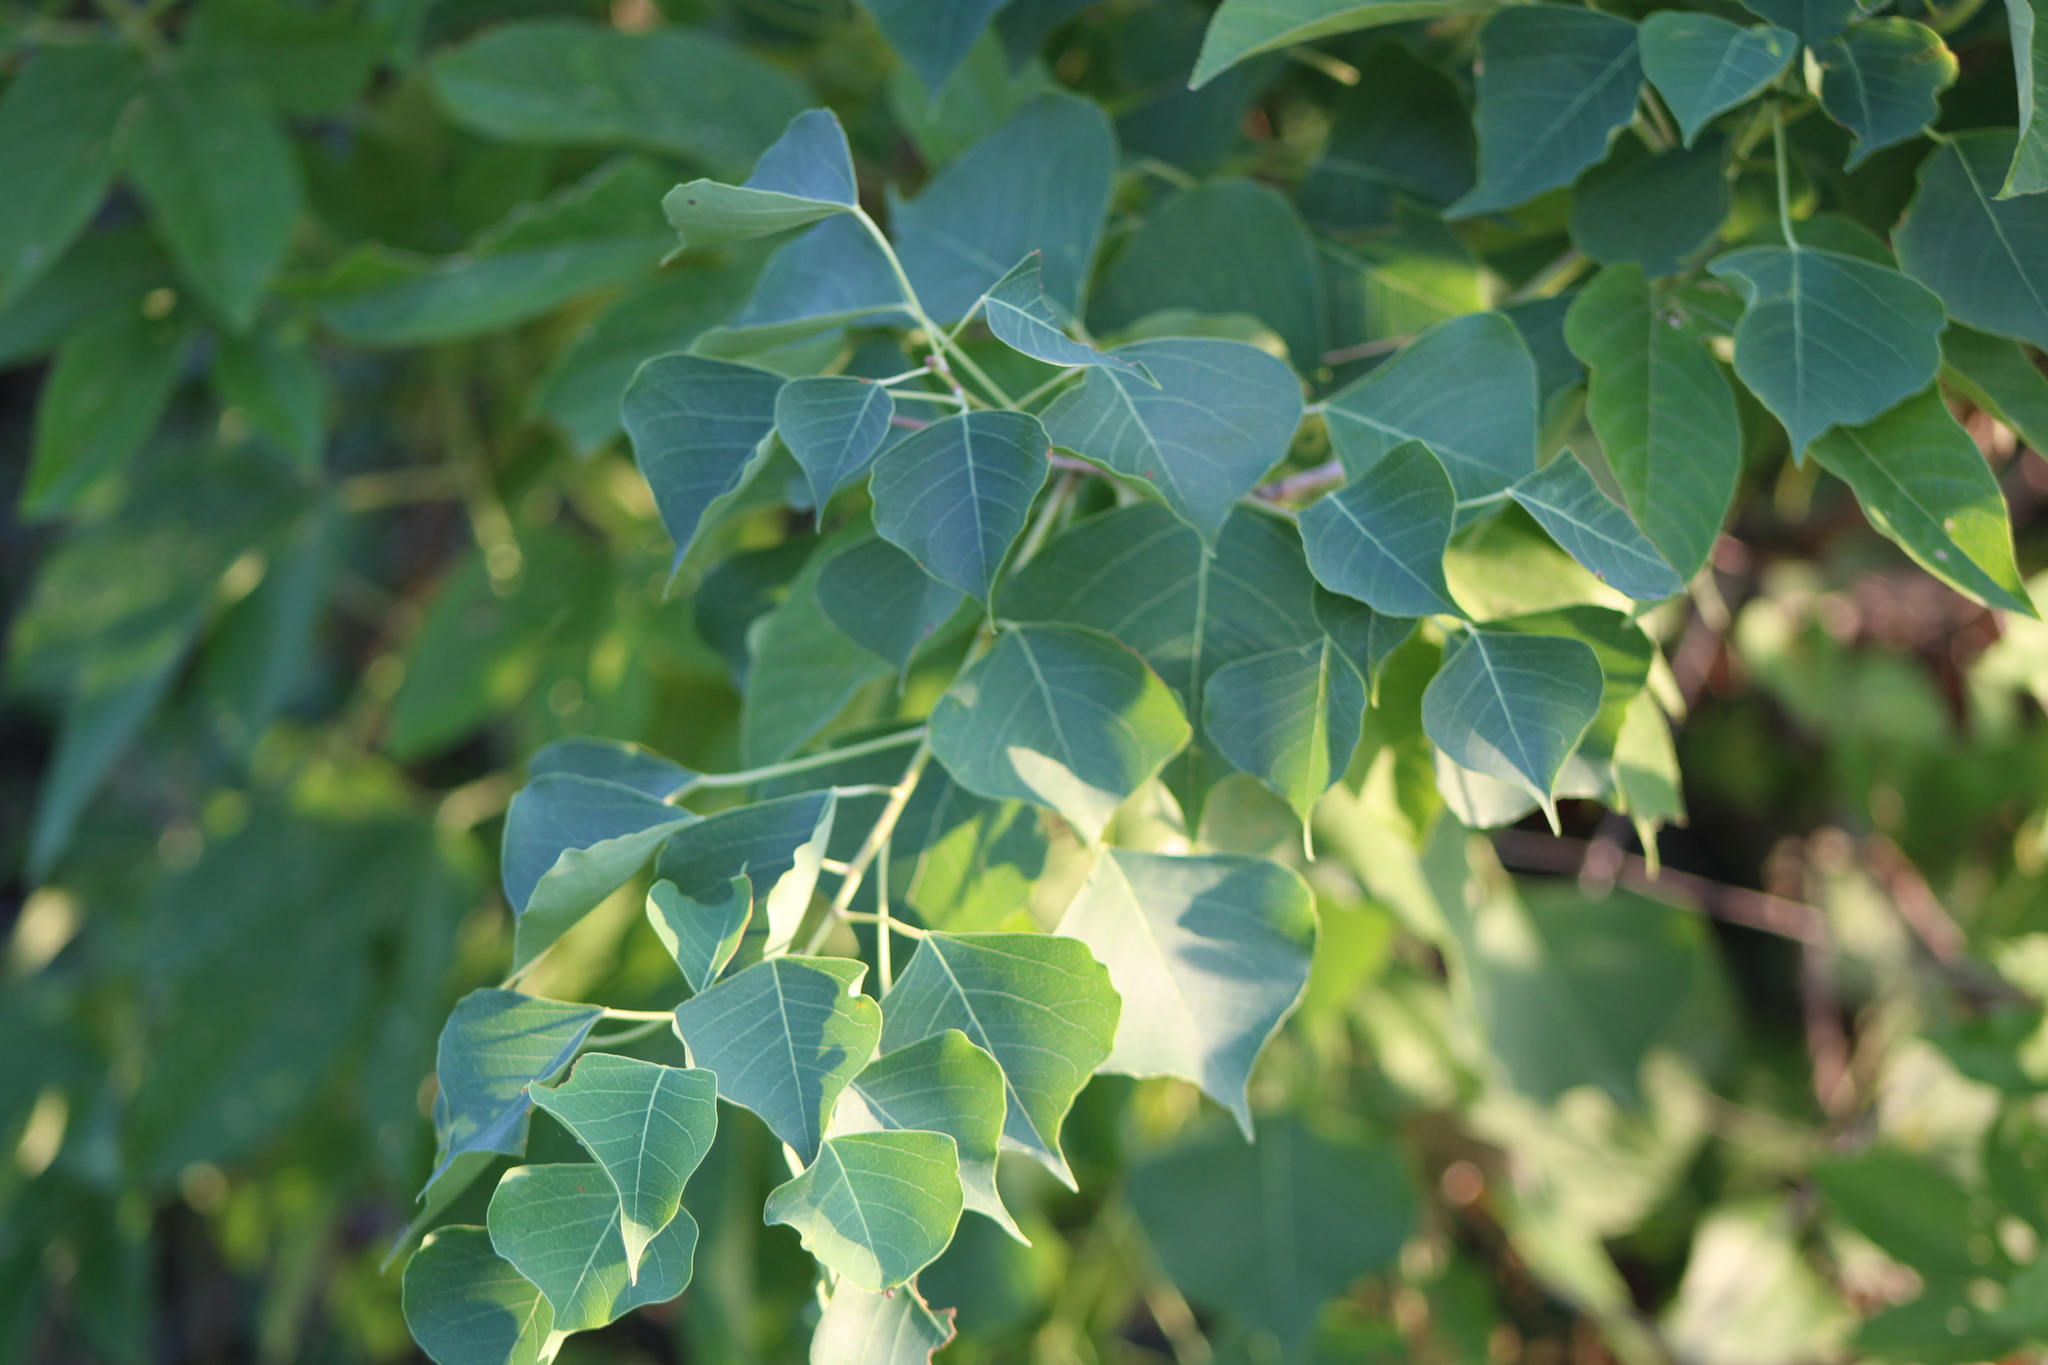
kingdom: Plantae
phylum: Tracheophyta
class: Magnoliopsida
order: Malpighiales
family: Euphorbiaceae
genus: Triadica
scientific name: Triadica sebifera
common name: Chinese tallow
